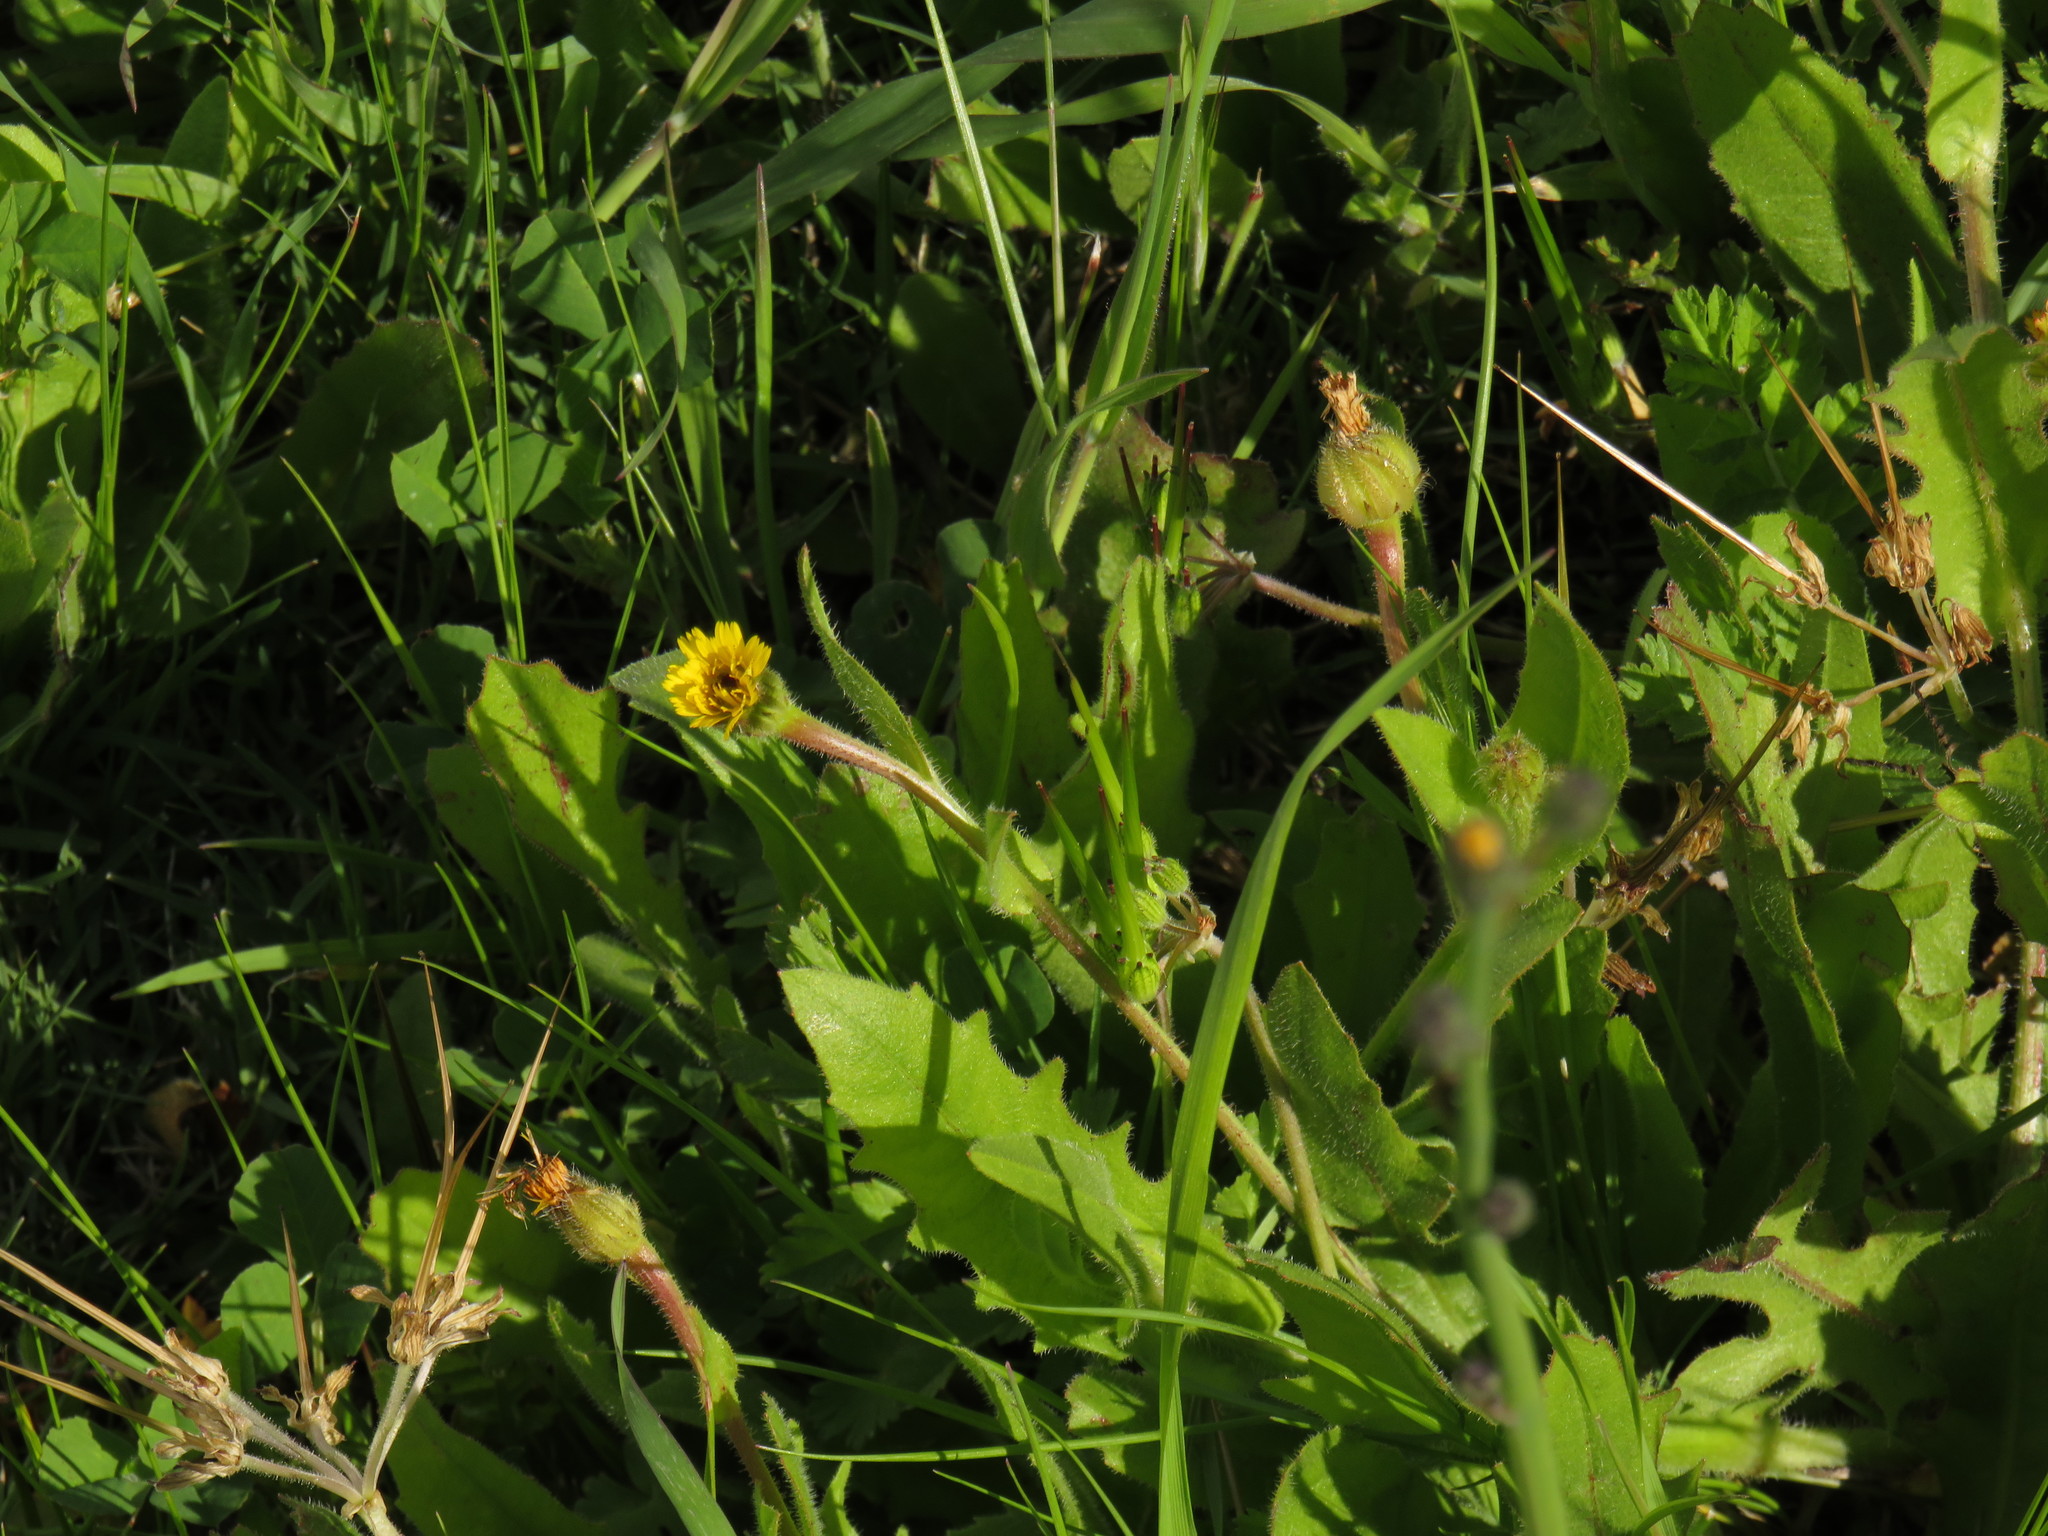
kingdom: Plantae
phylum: Tracheophyta
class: Magnoliopsida
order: Asterales
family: Asteraceae
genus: Hedypnois
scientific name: Hedypnois rhagadioloides
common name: Cretan weed
